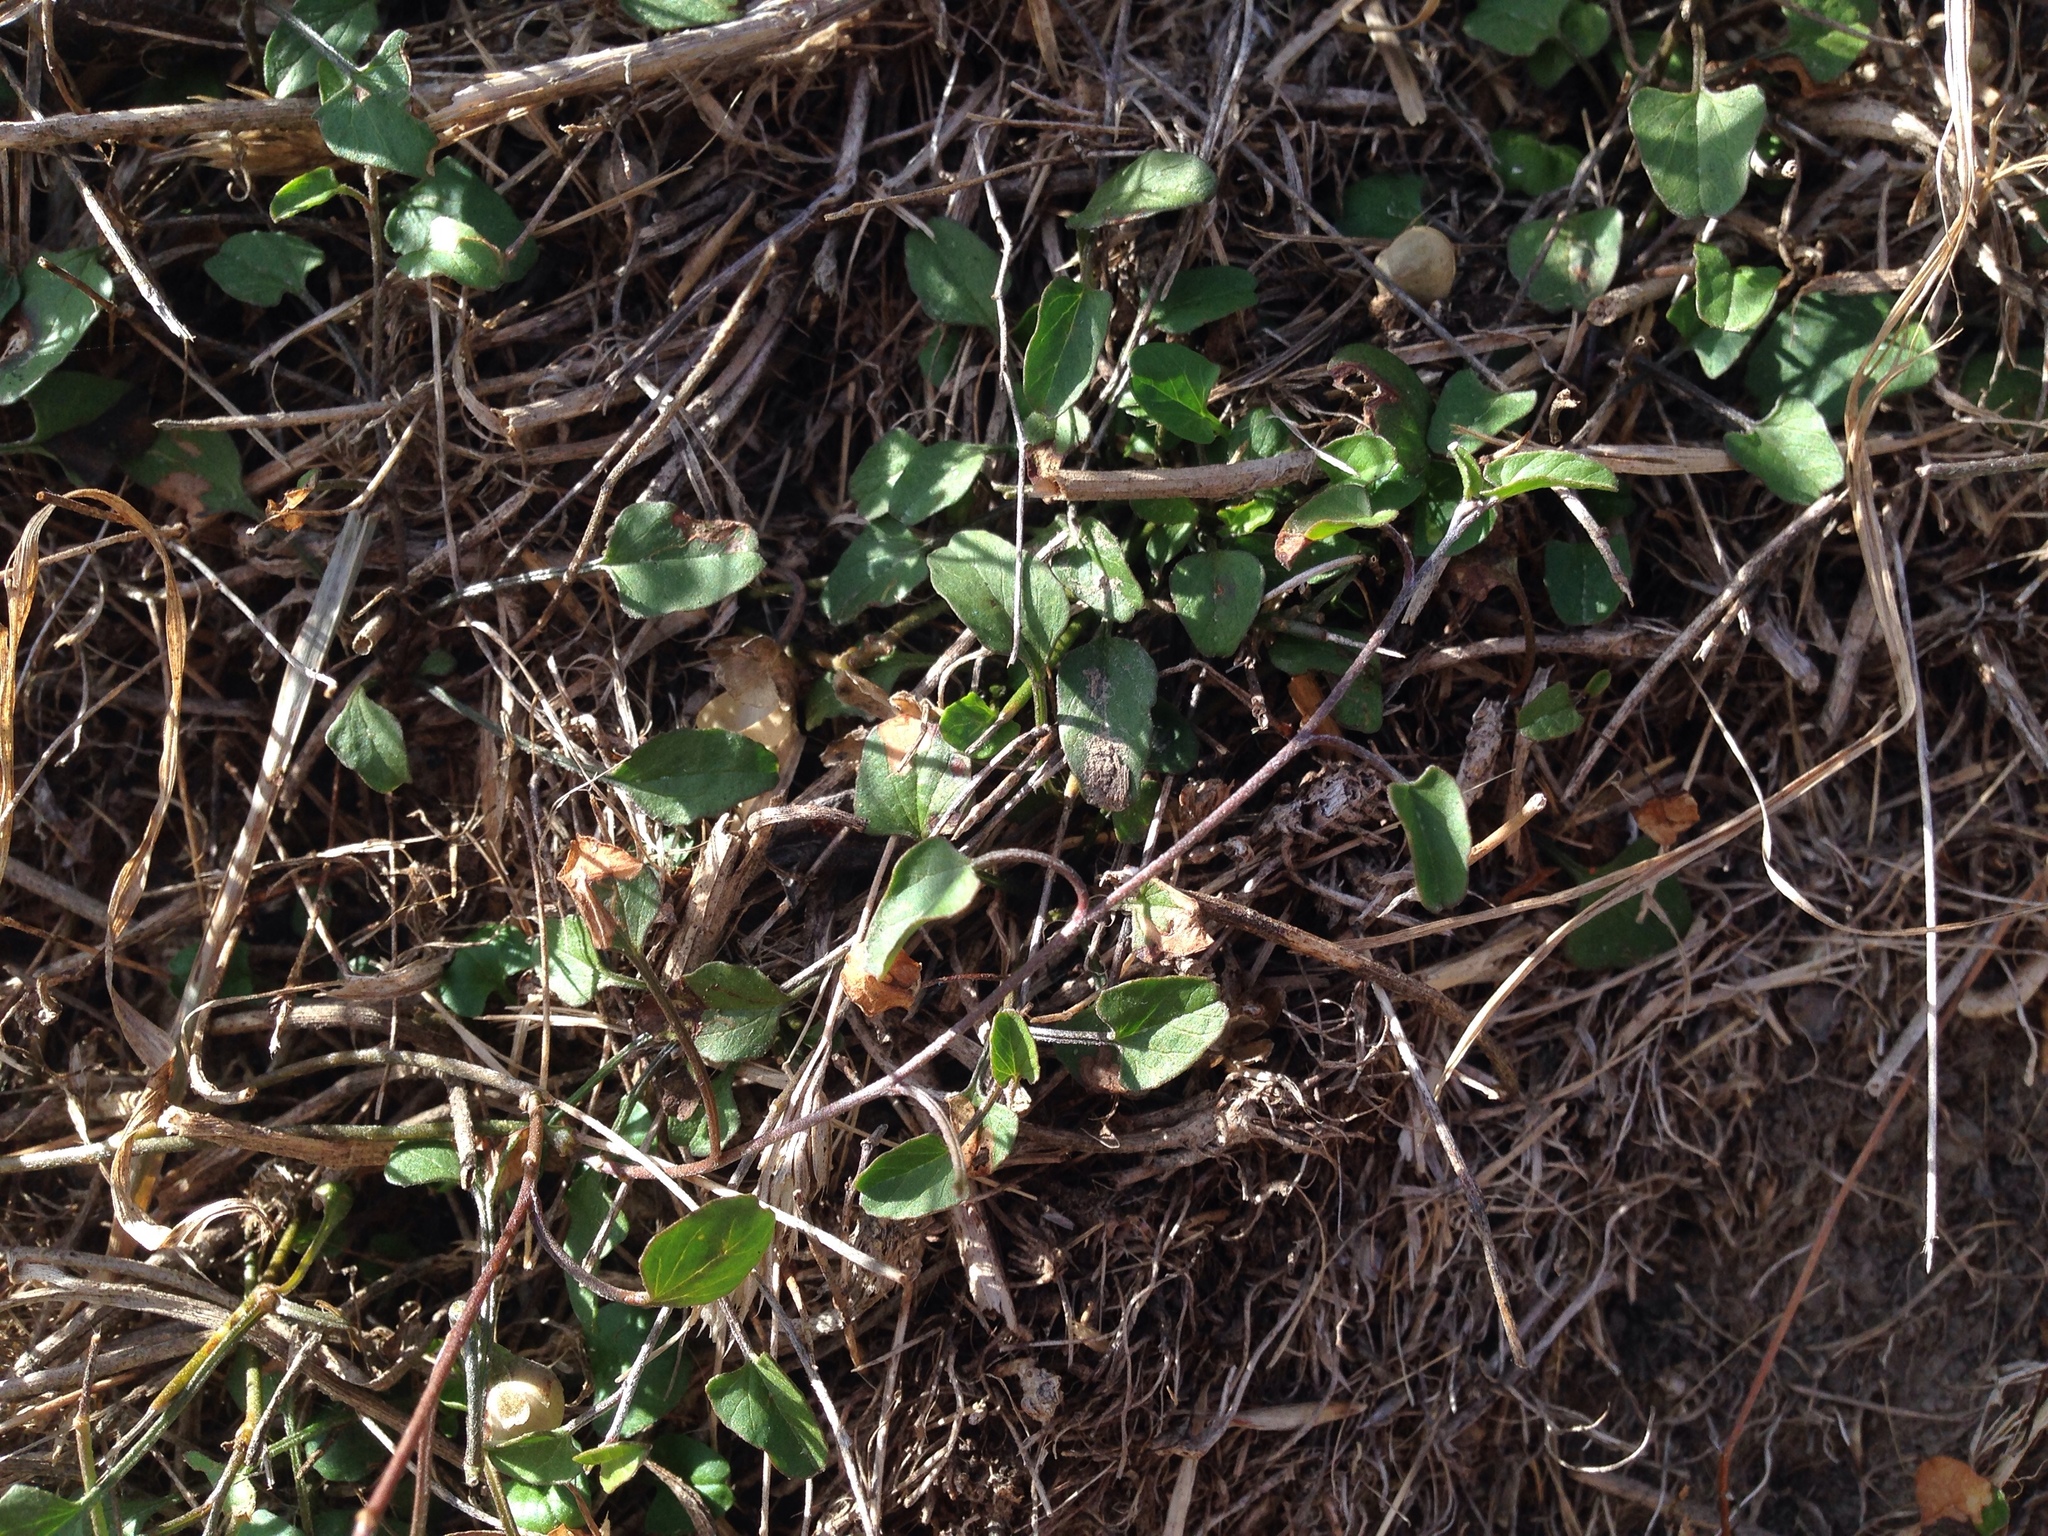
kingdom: Plantae
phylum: Tracheophyta
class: Magnoliopsida
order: Solanales
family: Convolvulaceae
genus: Convolvulus
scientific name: Convolvulus waitaha
